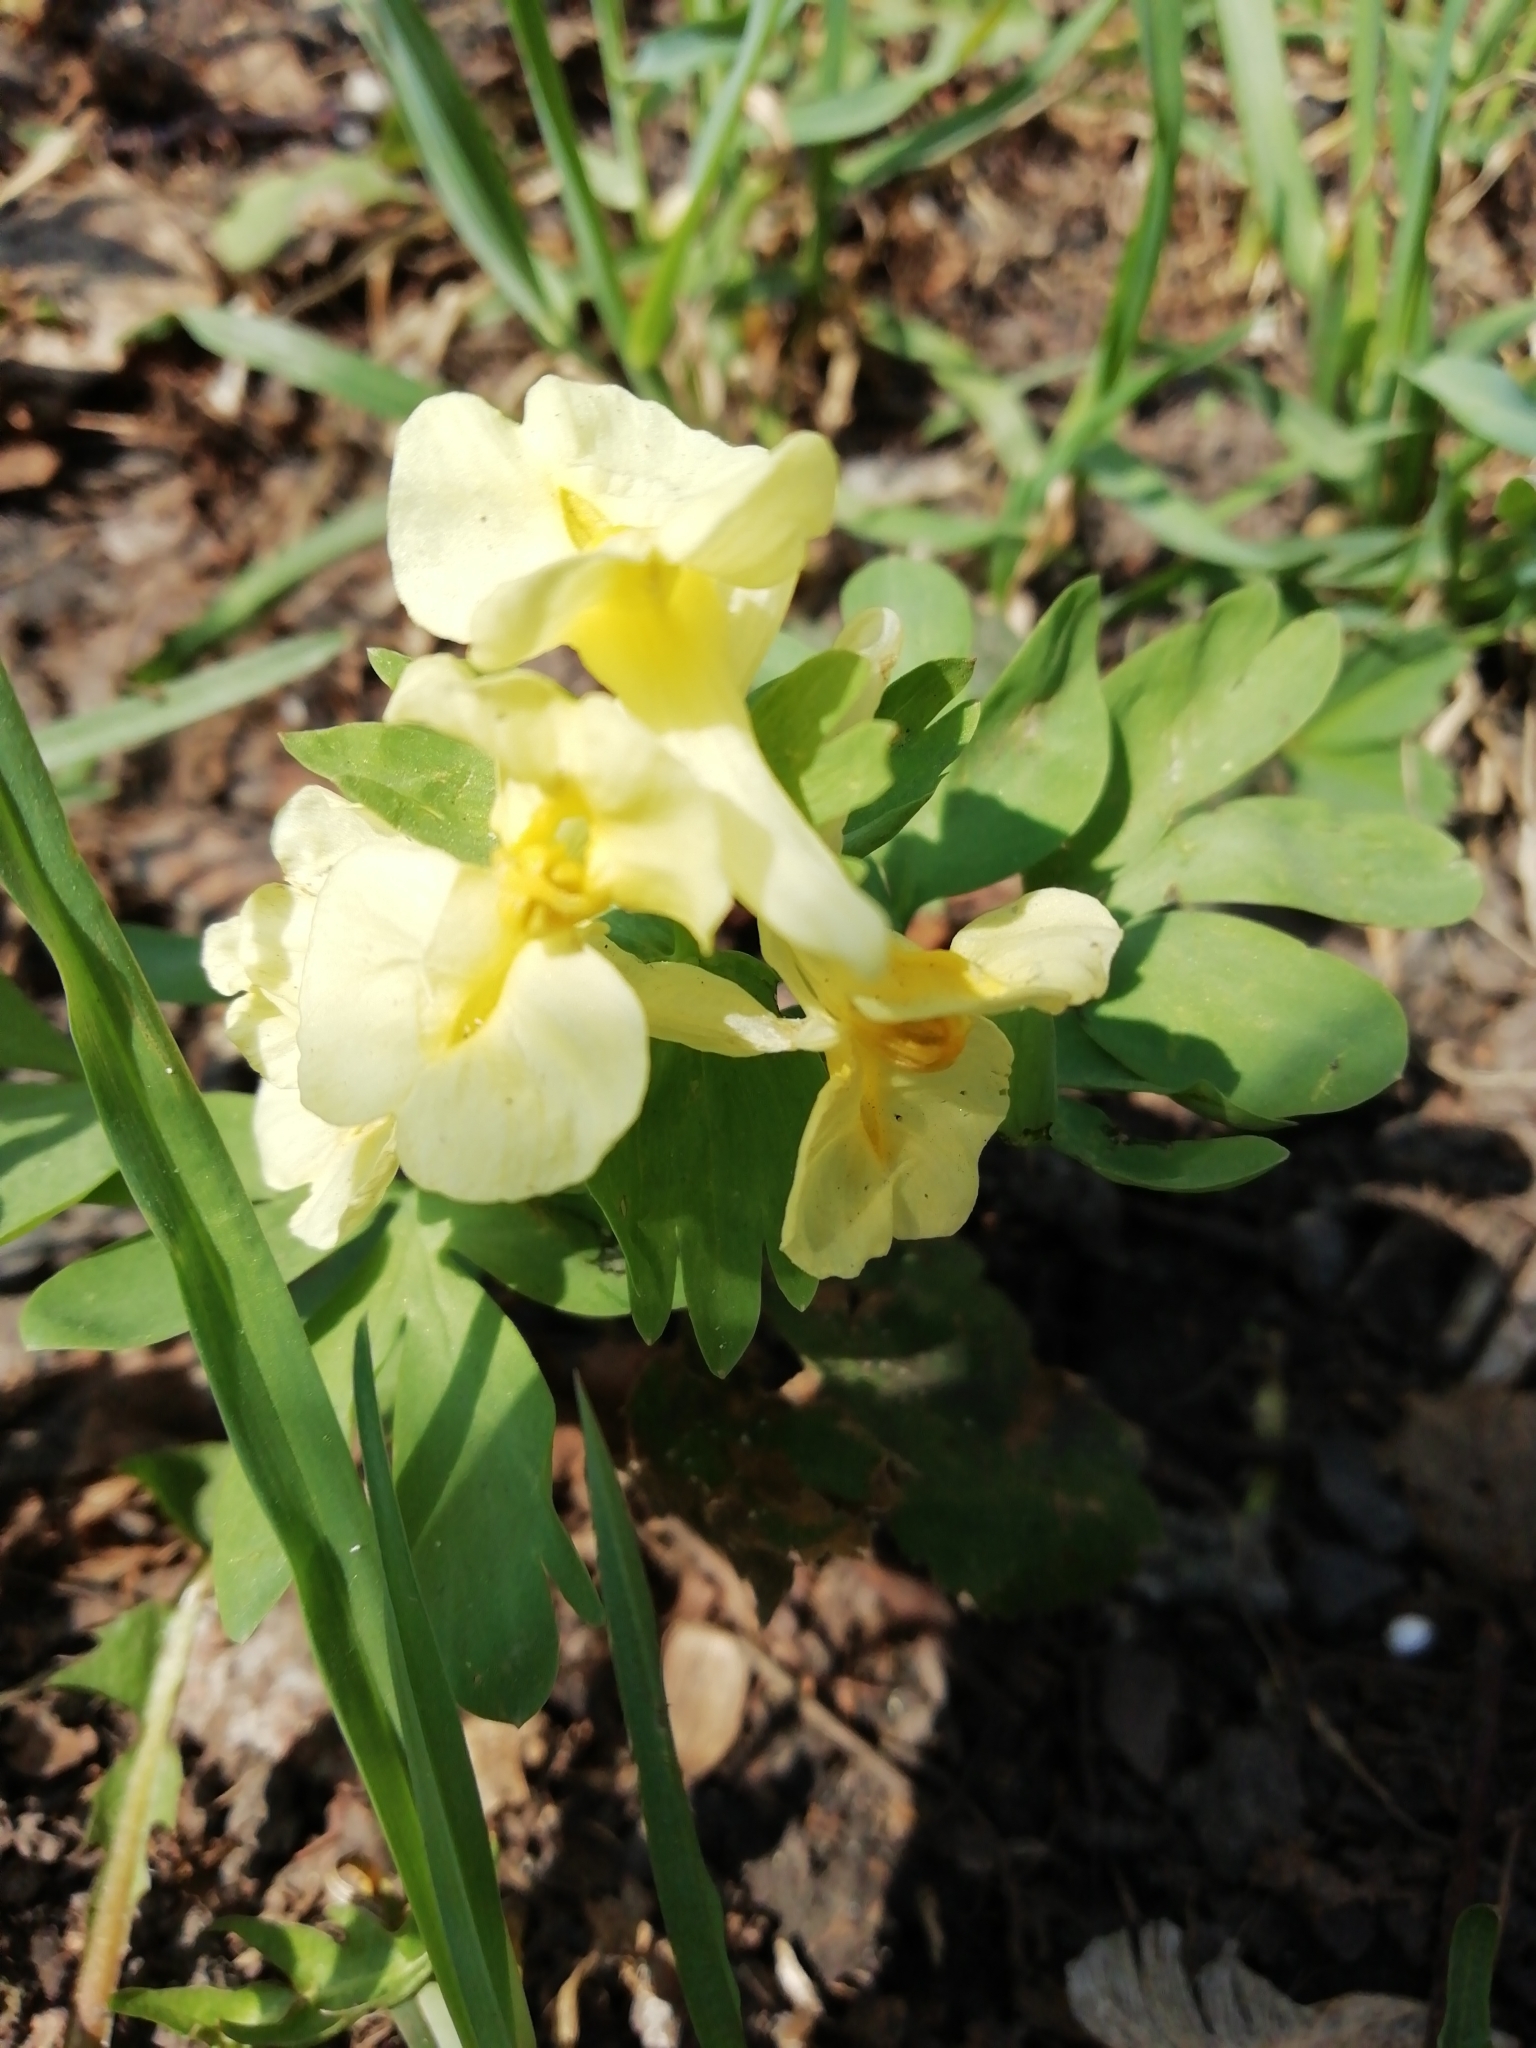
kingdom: Plantae
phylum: Tracheophyta
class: Magnoliopsida
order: Ranunculales
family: Papaveraceae
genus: Corydalis
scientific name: Corydalis bracteata
